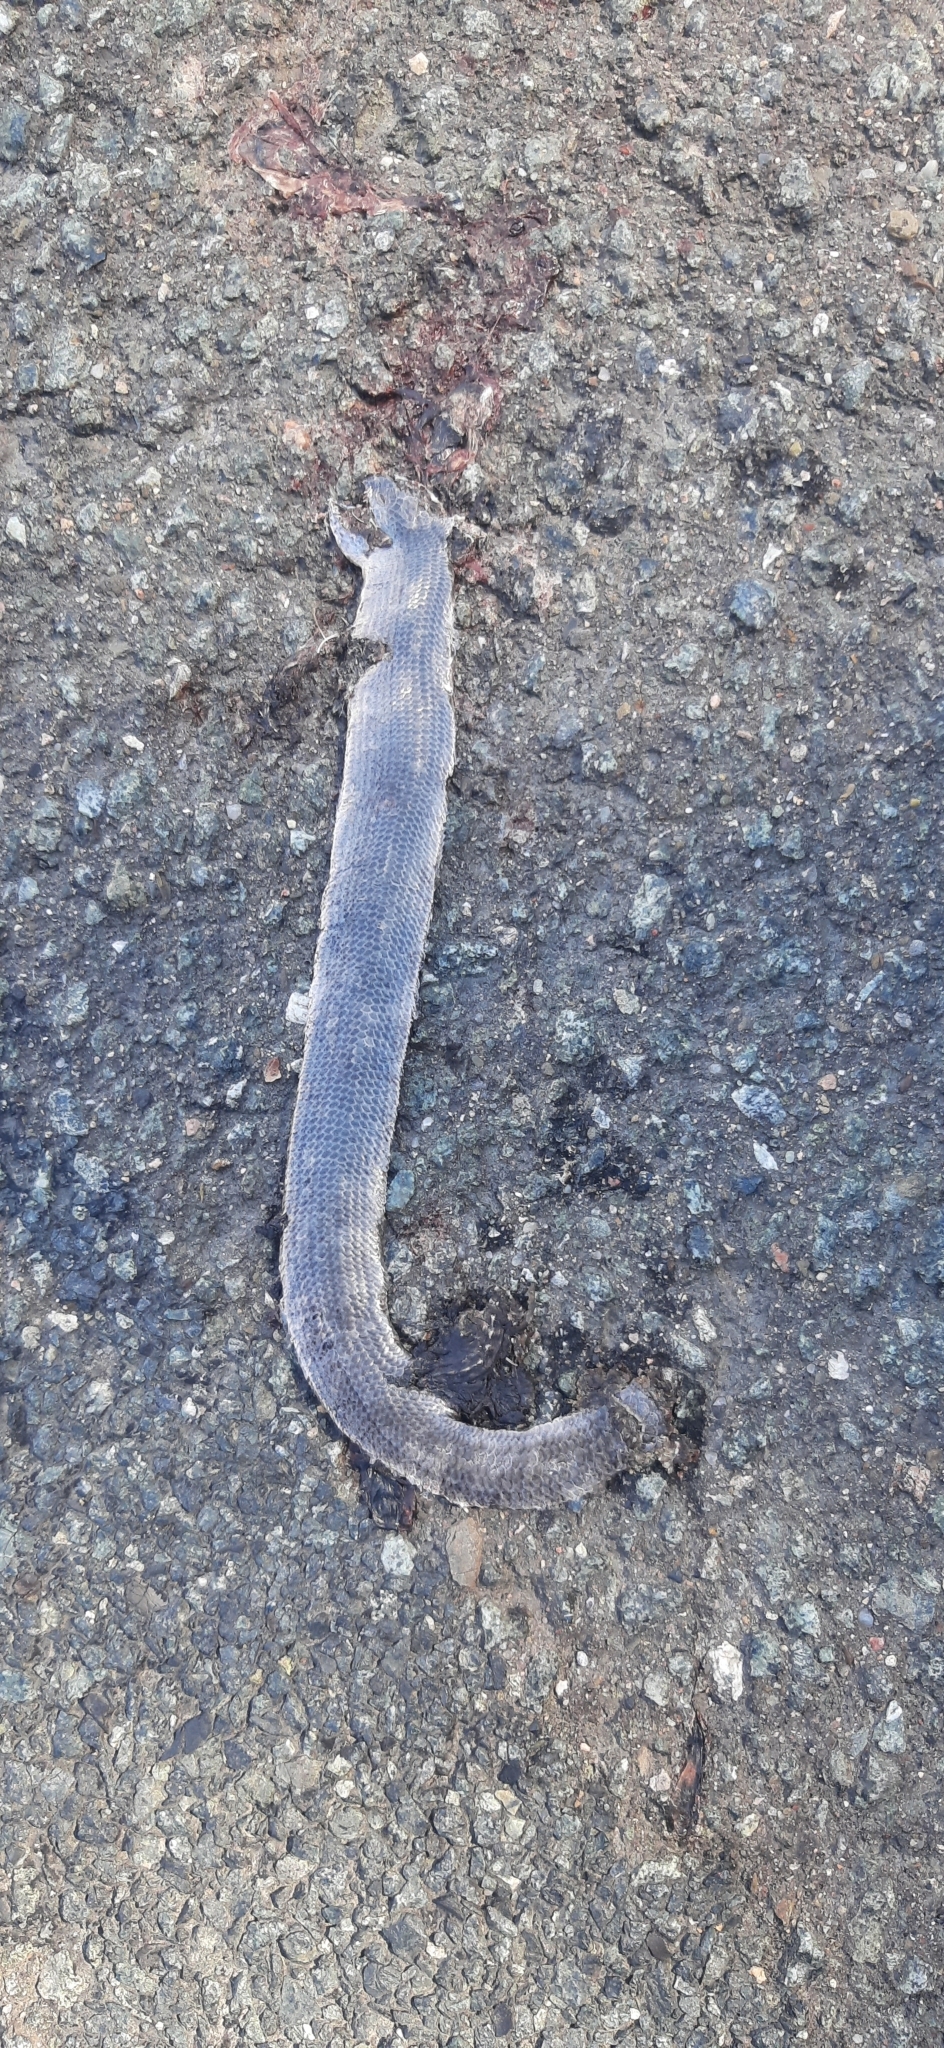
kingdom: Animalia
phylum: Chordata
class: Squamata
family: Anguidae
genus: Anguis
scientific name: Anguis fragilis
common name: Slow worm
